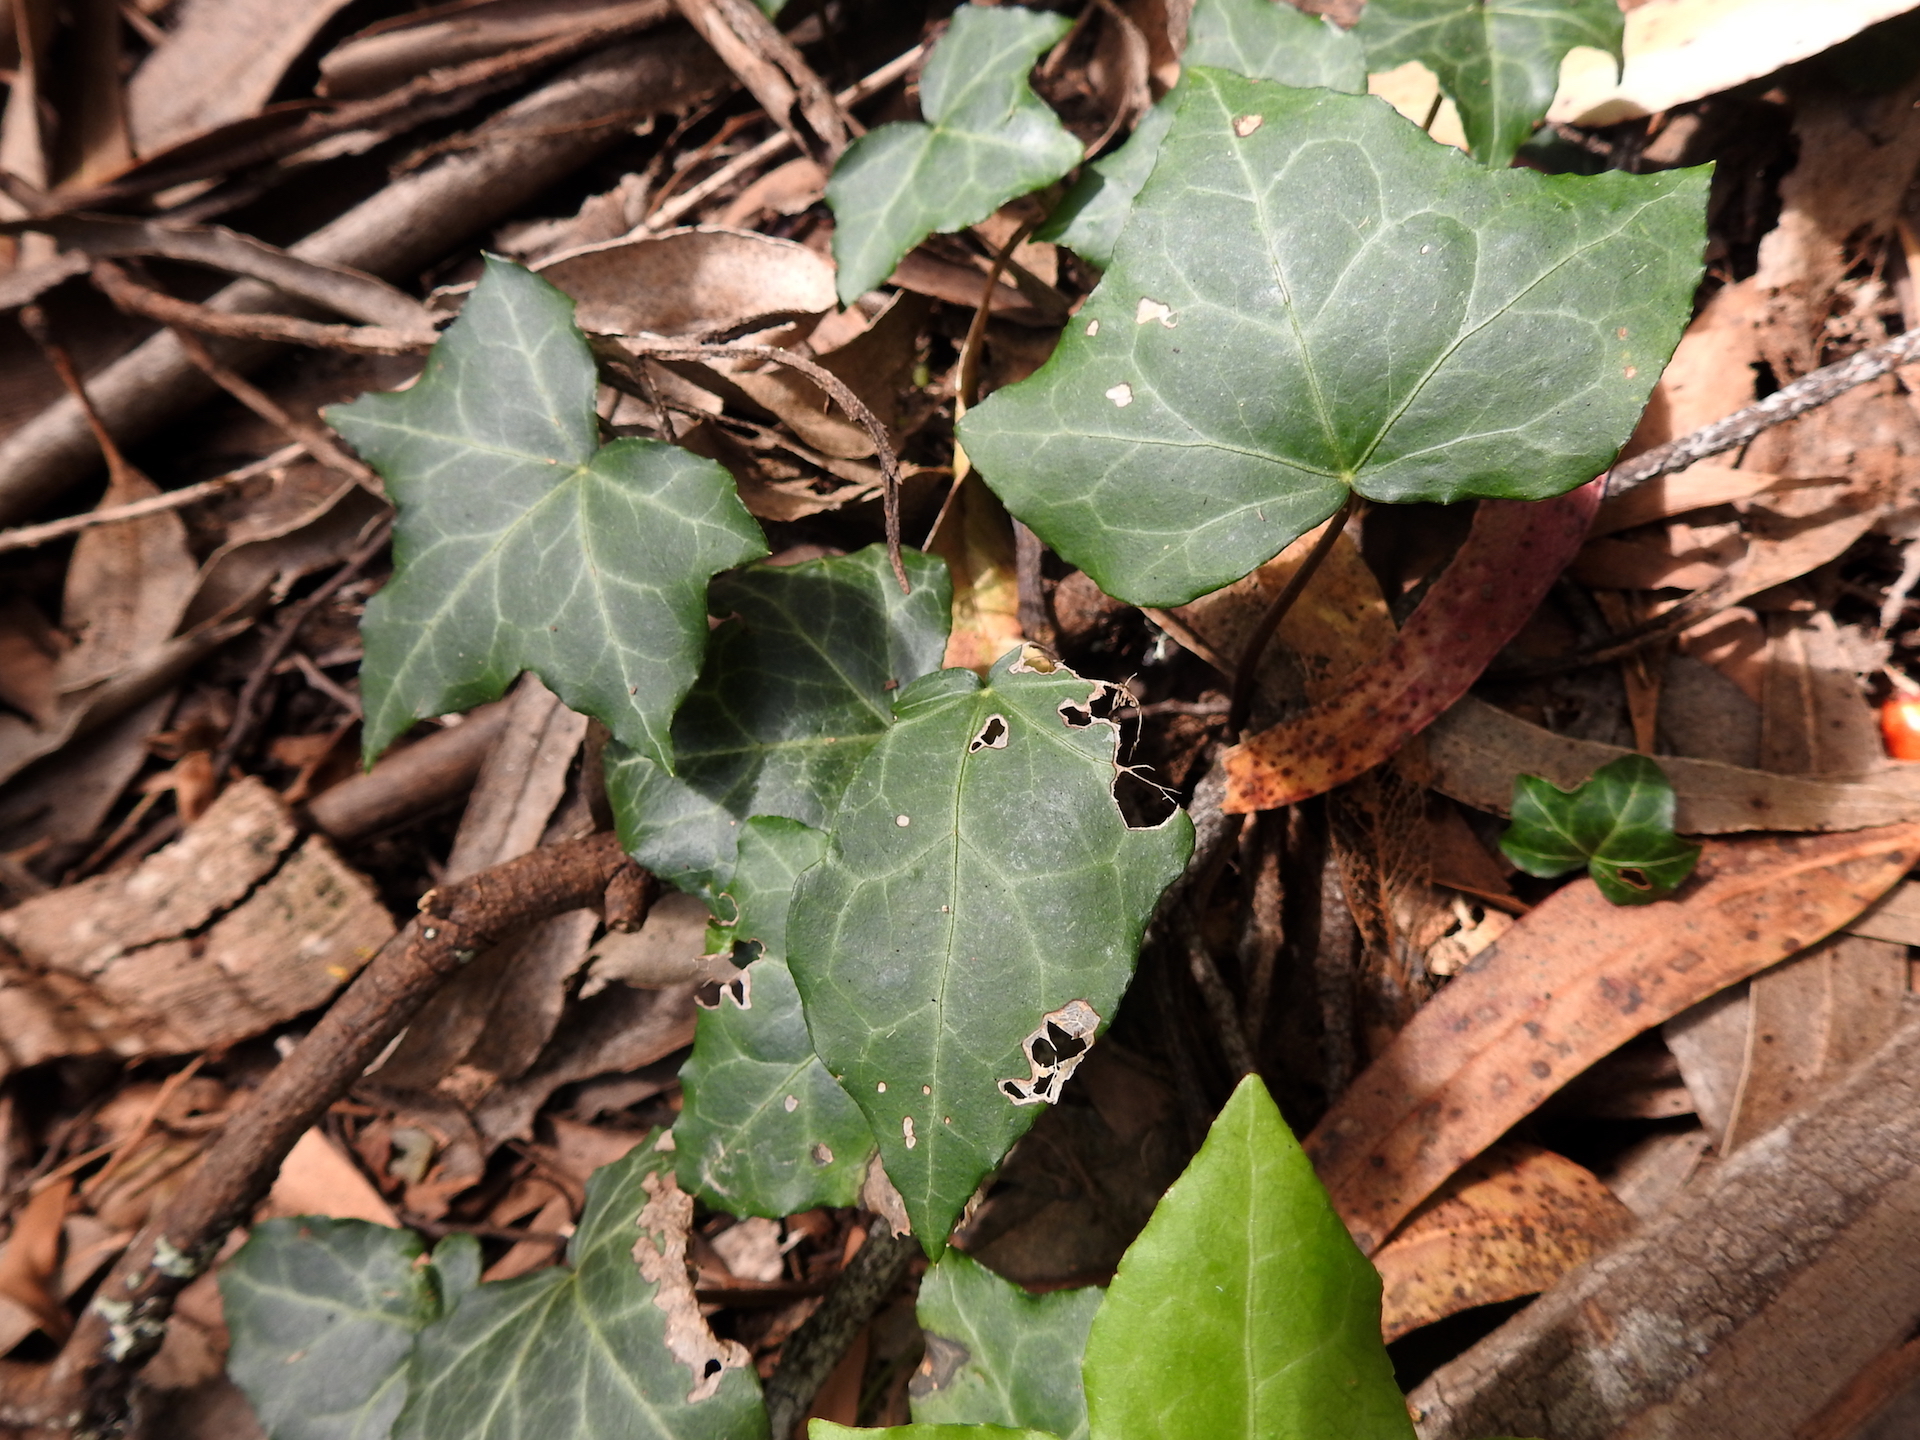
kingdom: Plantae
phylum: Tracheophyta
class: Magnoliopsida
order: Apiales
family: Araliaceae
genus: Hedera
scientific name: Hedera helix
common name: Ivy
